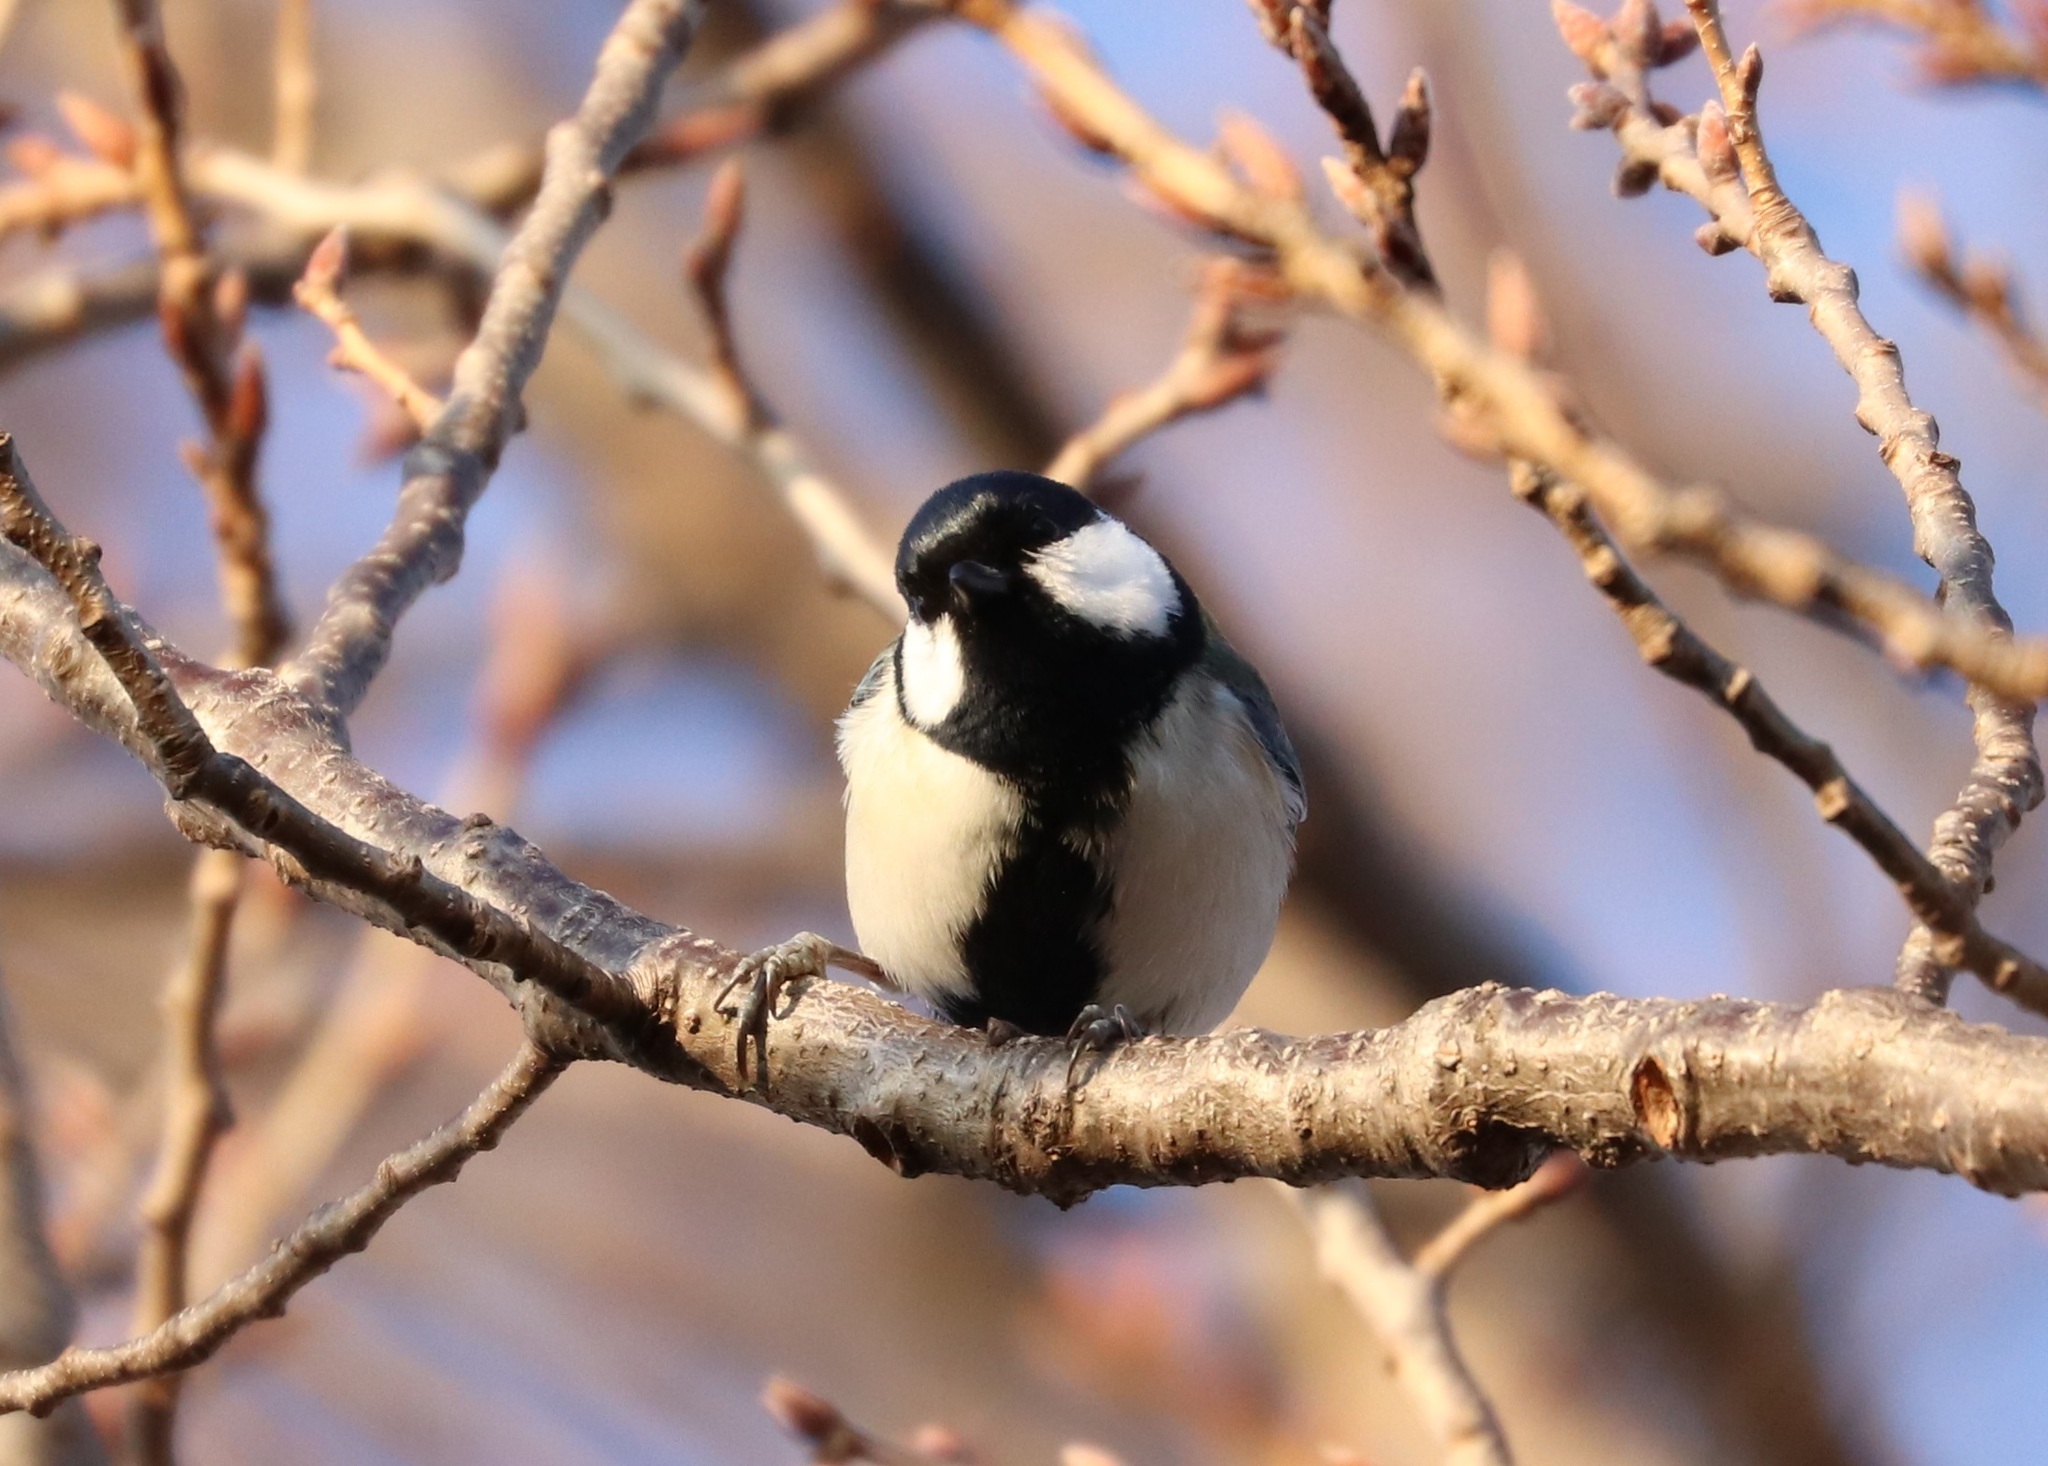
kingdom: Animalia
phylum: Chordata
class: Aves
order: Passeriformes
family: Paridae
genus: Parus
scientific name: Parus minor
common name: Japanese tit
